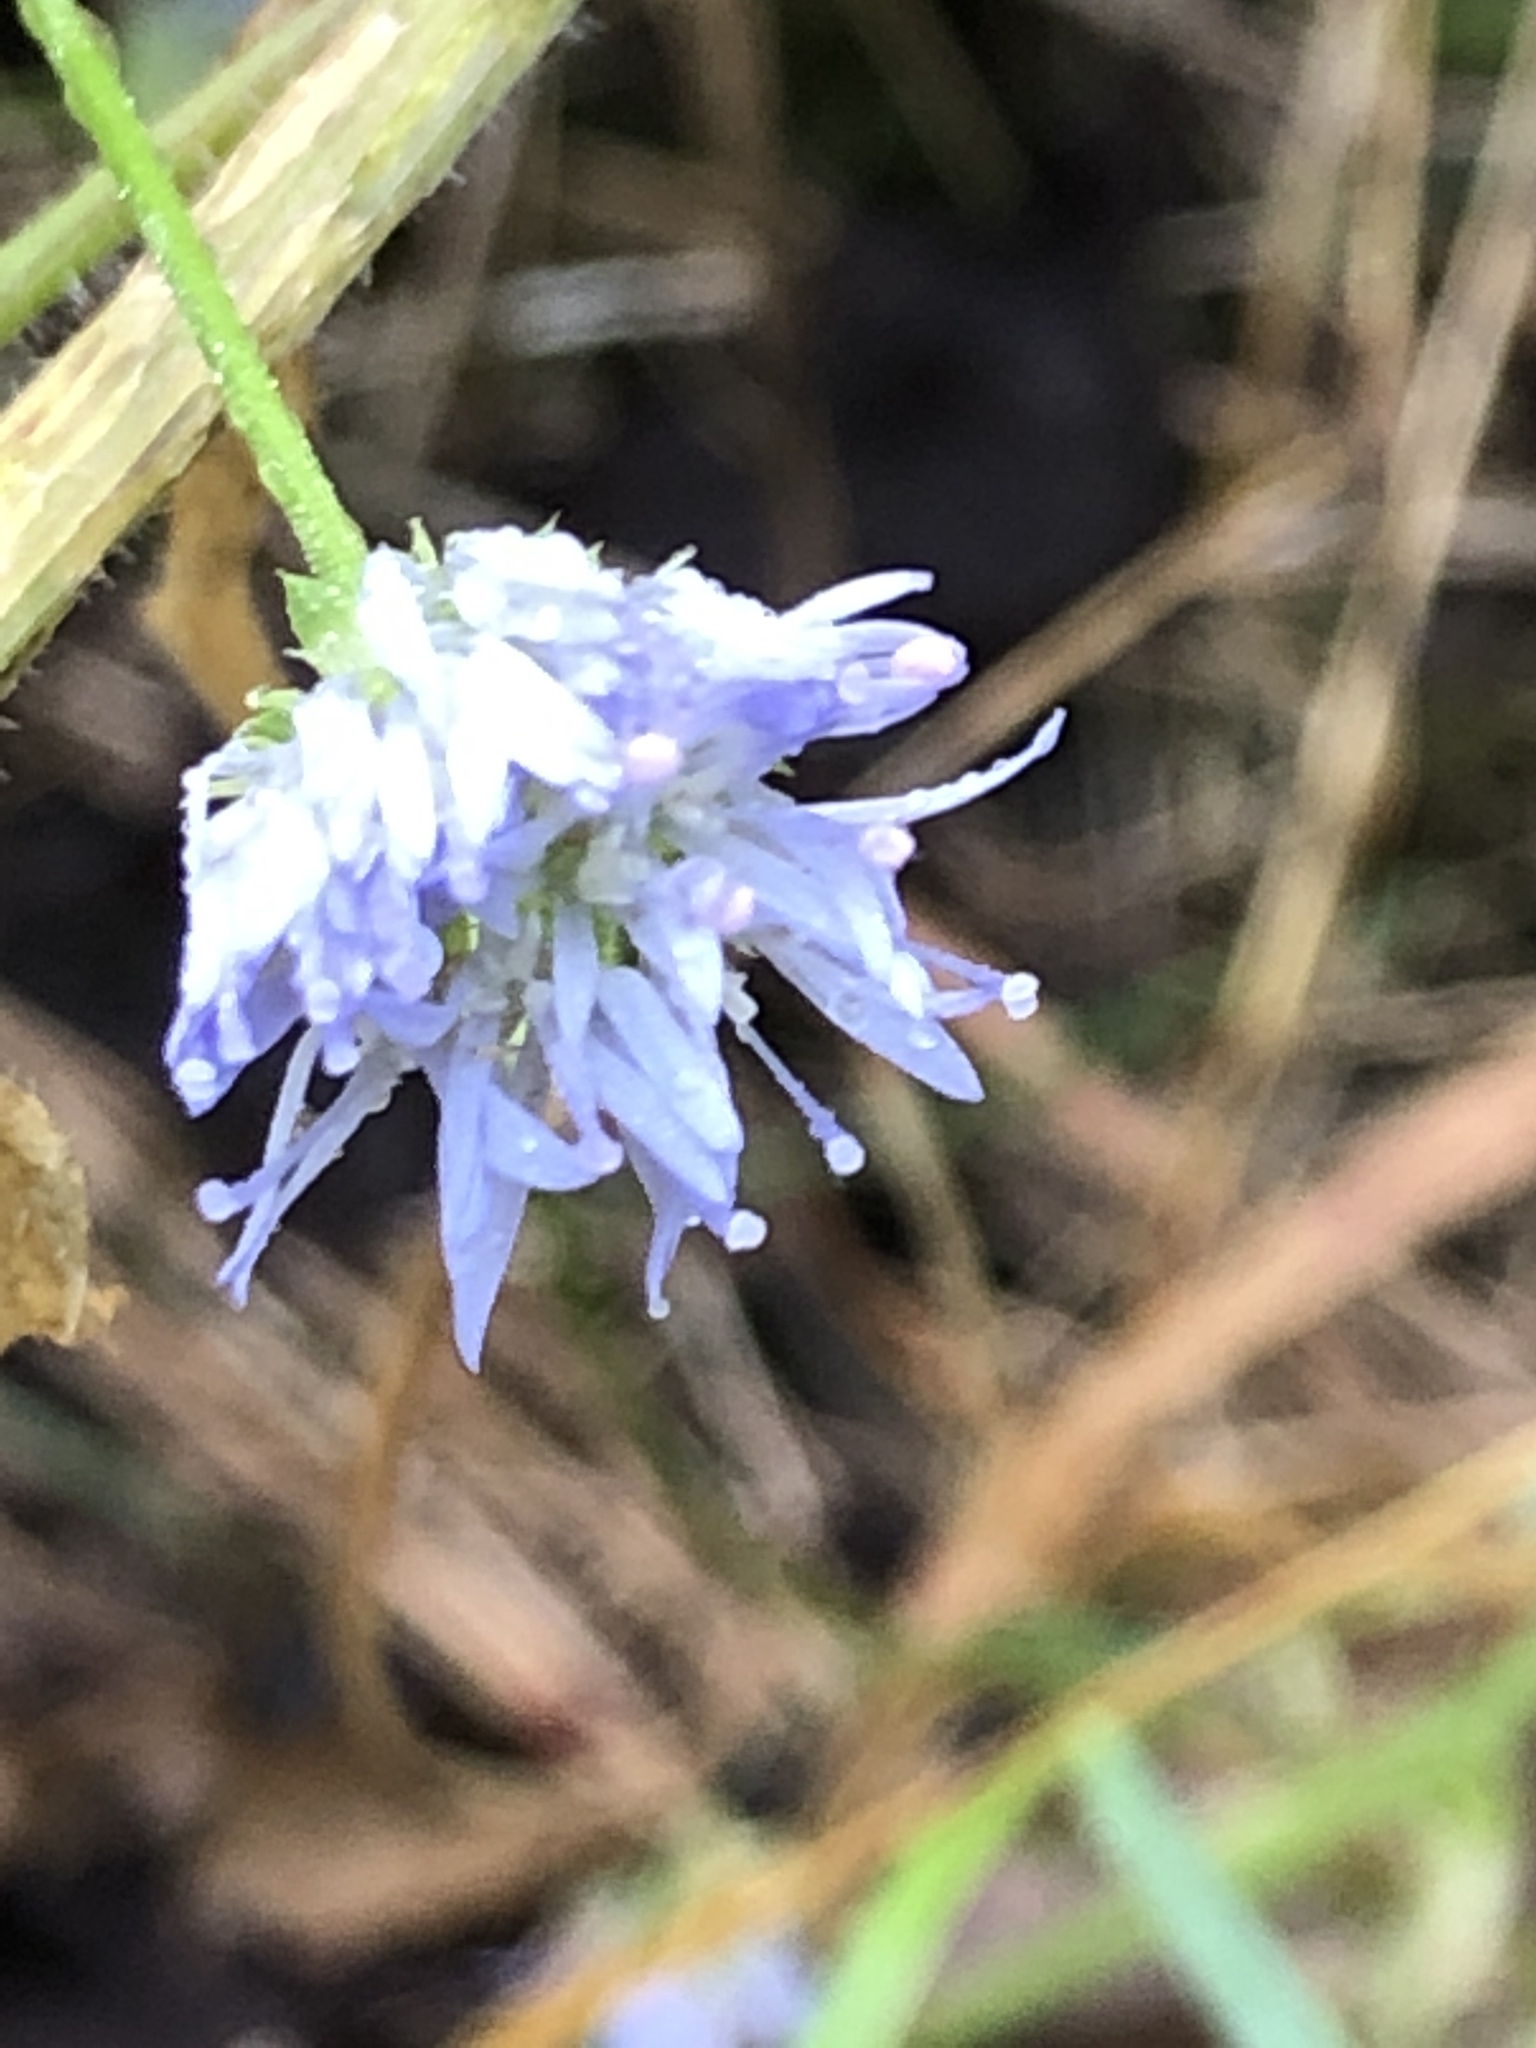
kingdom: Plantae
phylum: Tracheophyta
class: Magnoliopsida
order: Asterales
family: Campanulaceae
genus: Jasione
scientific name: Jasione montana
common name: Sheep's-bit
